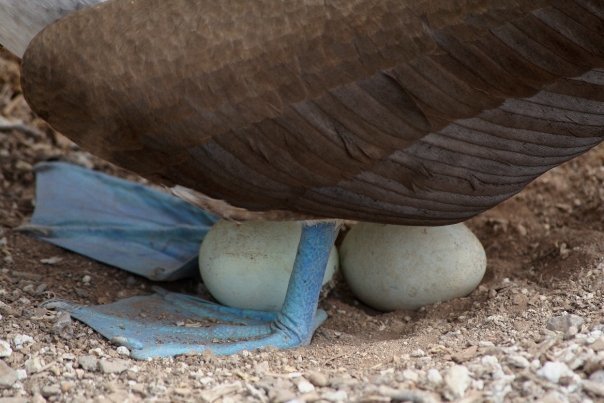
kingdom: Animalia
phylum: Chordata
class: Aves
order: Suliformes
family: Sulidae
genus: Sula
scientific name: Sula nebouxii
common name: Blue-footed booby
